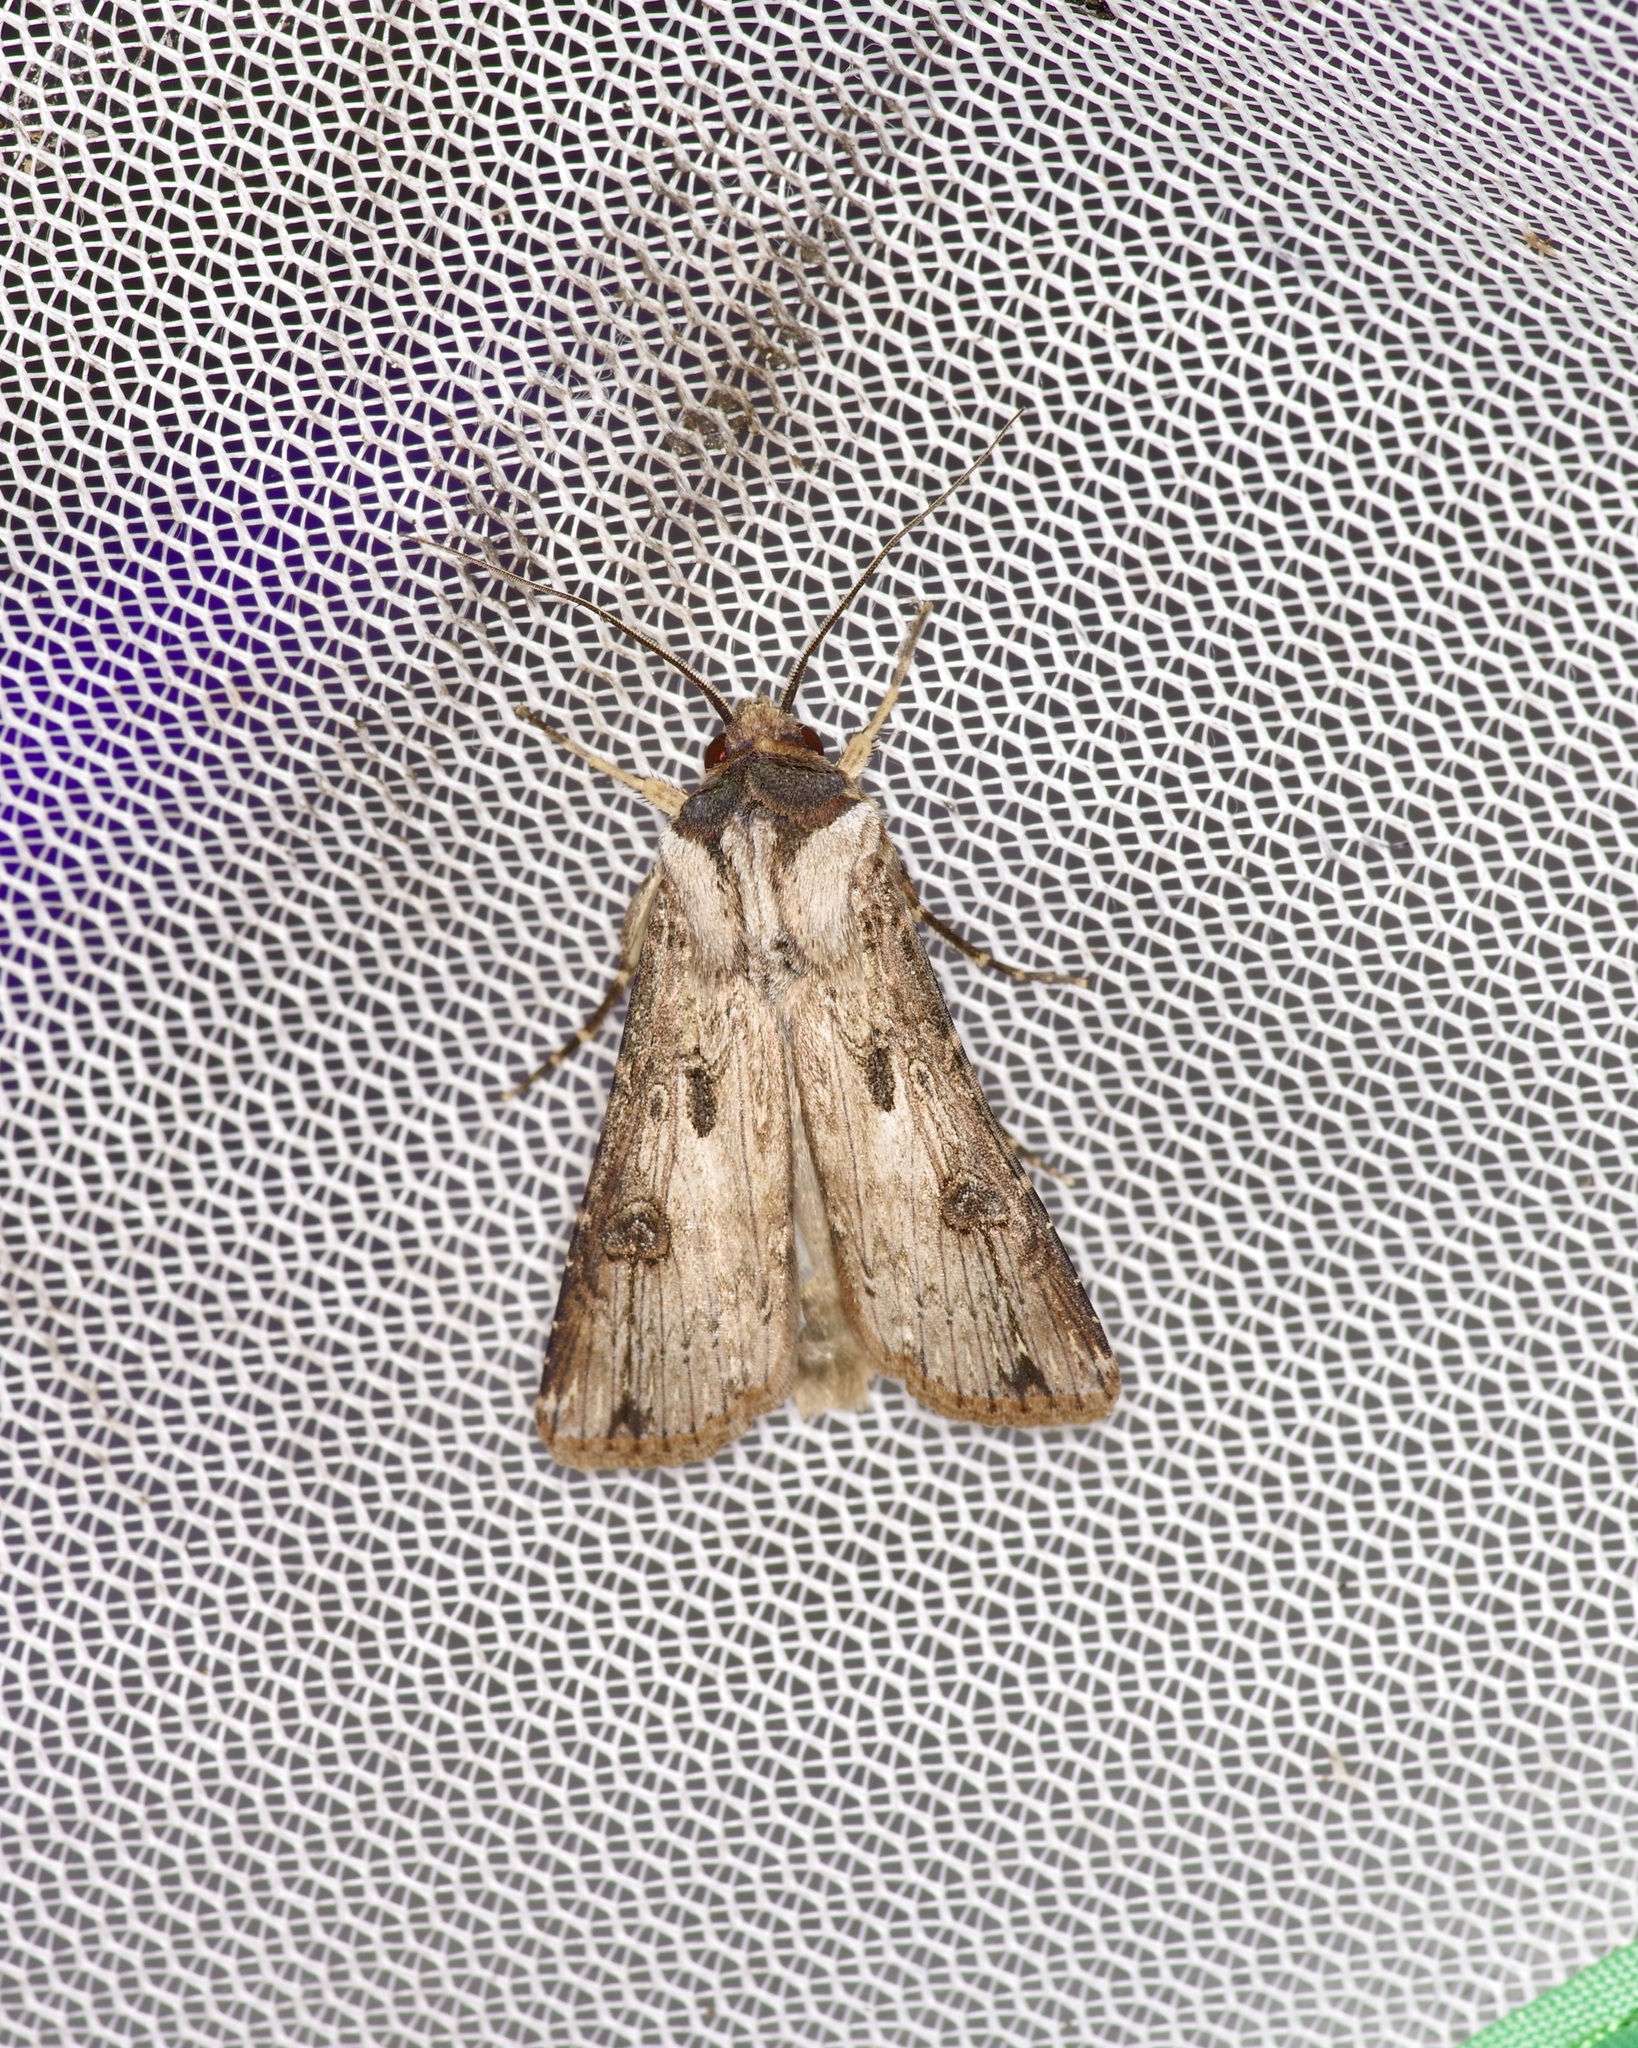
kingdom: Animalia
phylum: Arthropoda
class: Insecta
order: Lepidoptera
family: Noctuidae
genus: Agrotis
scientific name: Agrotis malefida
